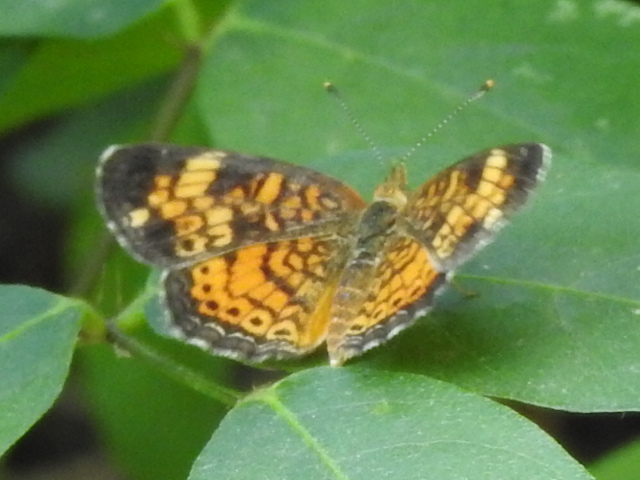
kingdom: Animalia
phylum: Arthropoda
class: Insecta
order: Lepidoptera
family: Nymphalidae
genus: Phyciodes
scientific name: Phyciodes tharos
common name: Pearl crescent
